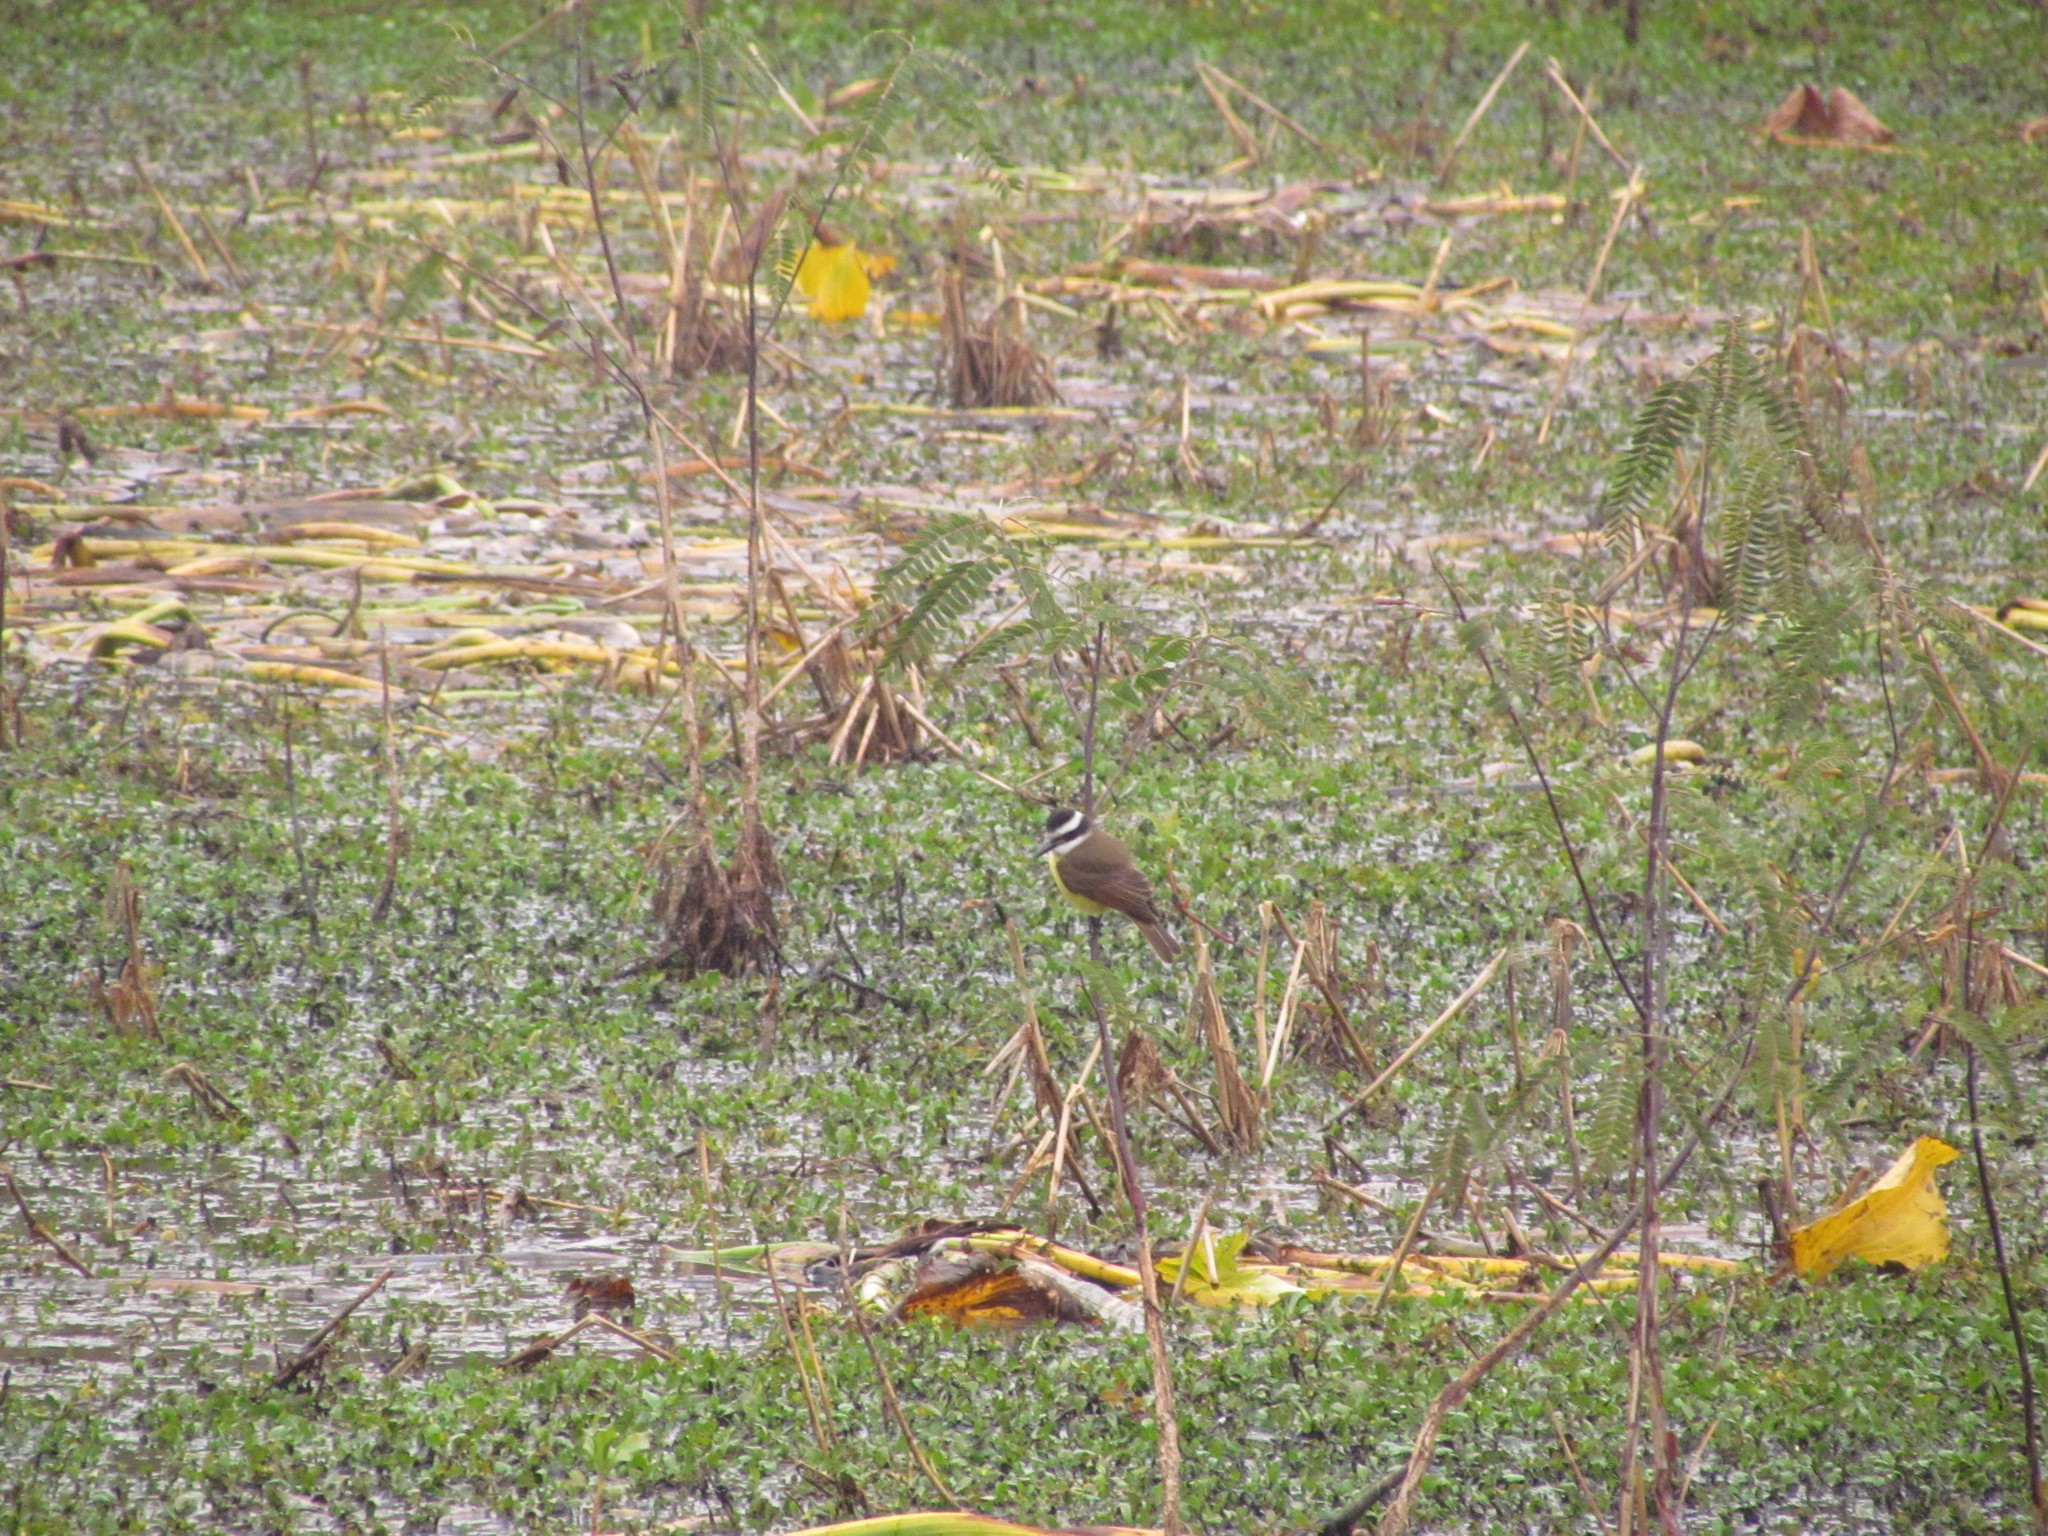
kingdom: Animalia
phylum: Chordata
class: Aves
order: Passeriformes
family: Tyrannidae
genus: Pitangus
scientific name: Pitangus sulphuratus
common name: Great kiskadee
